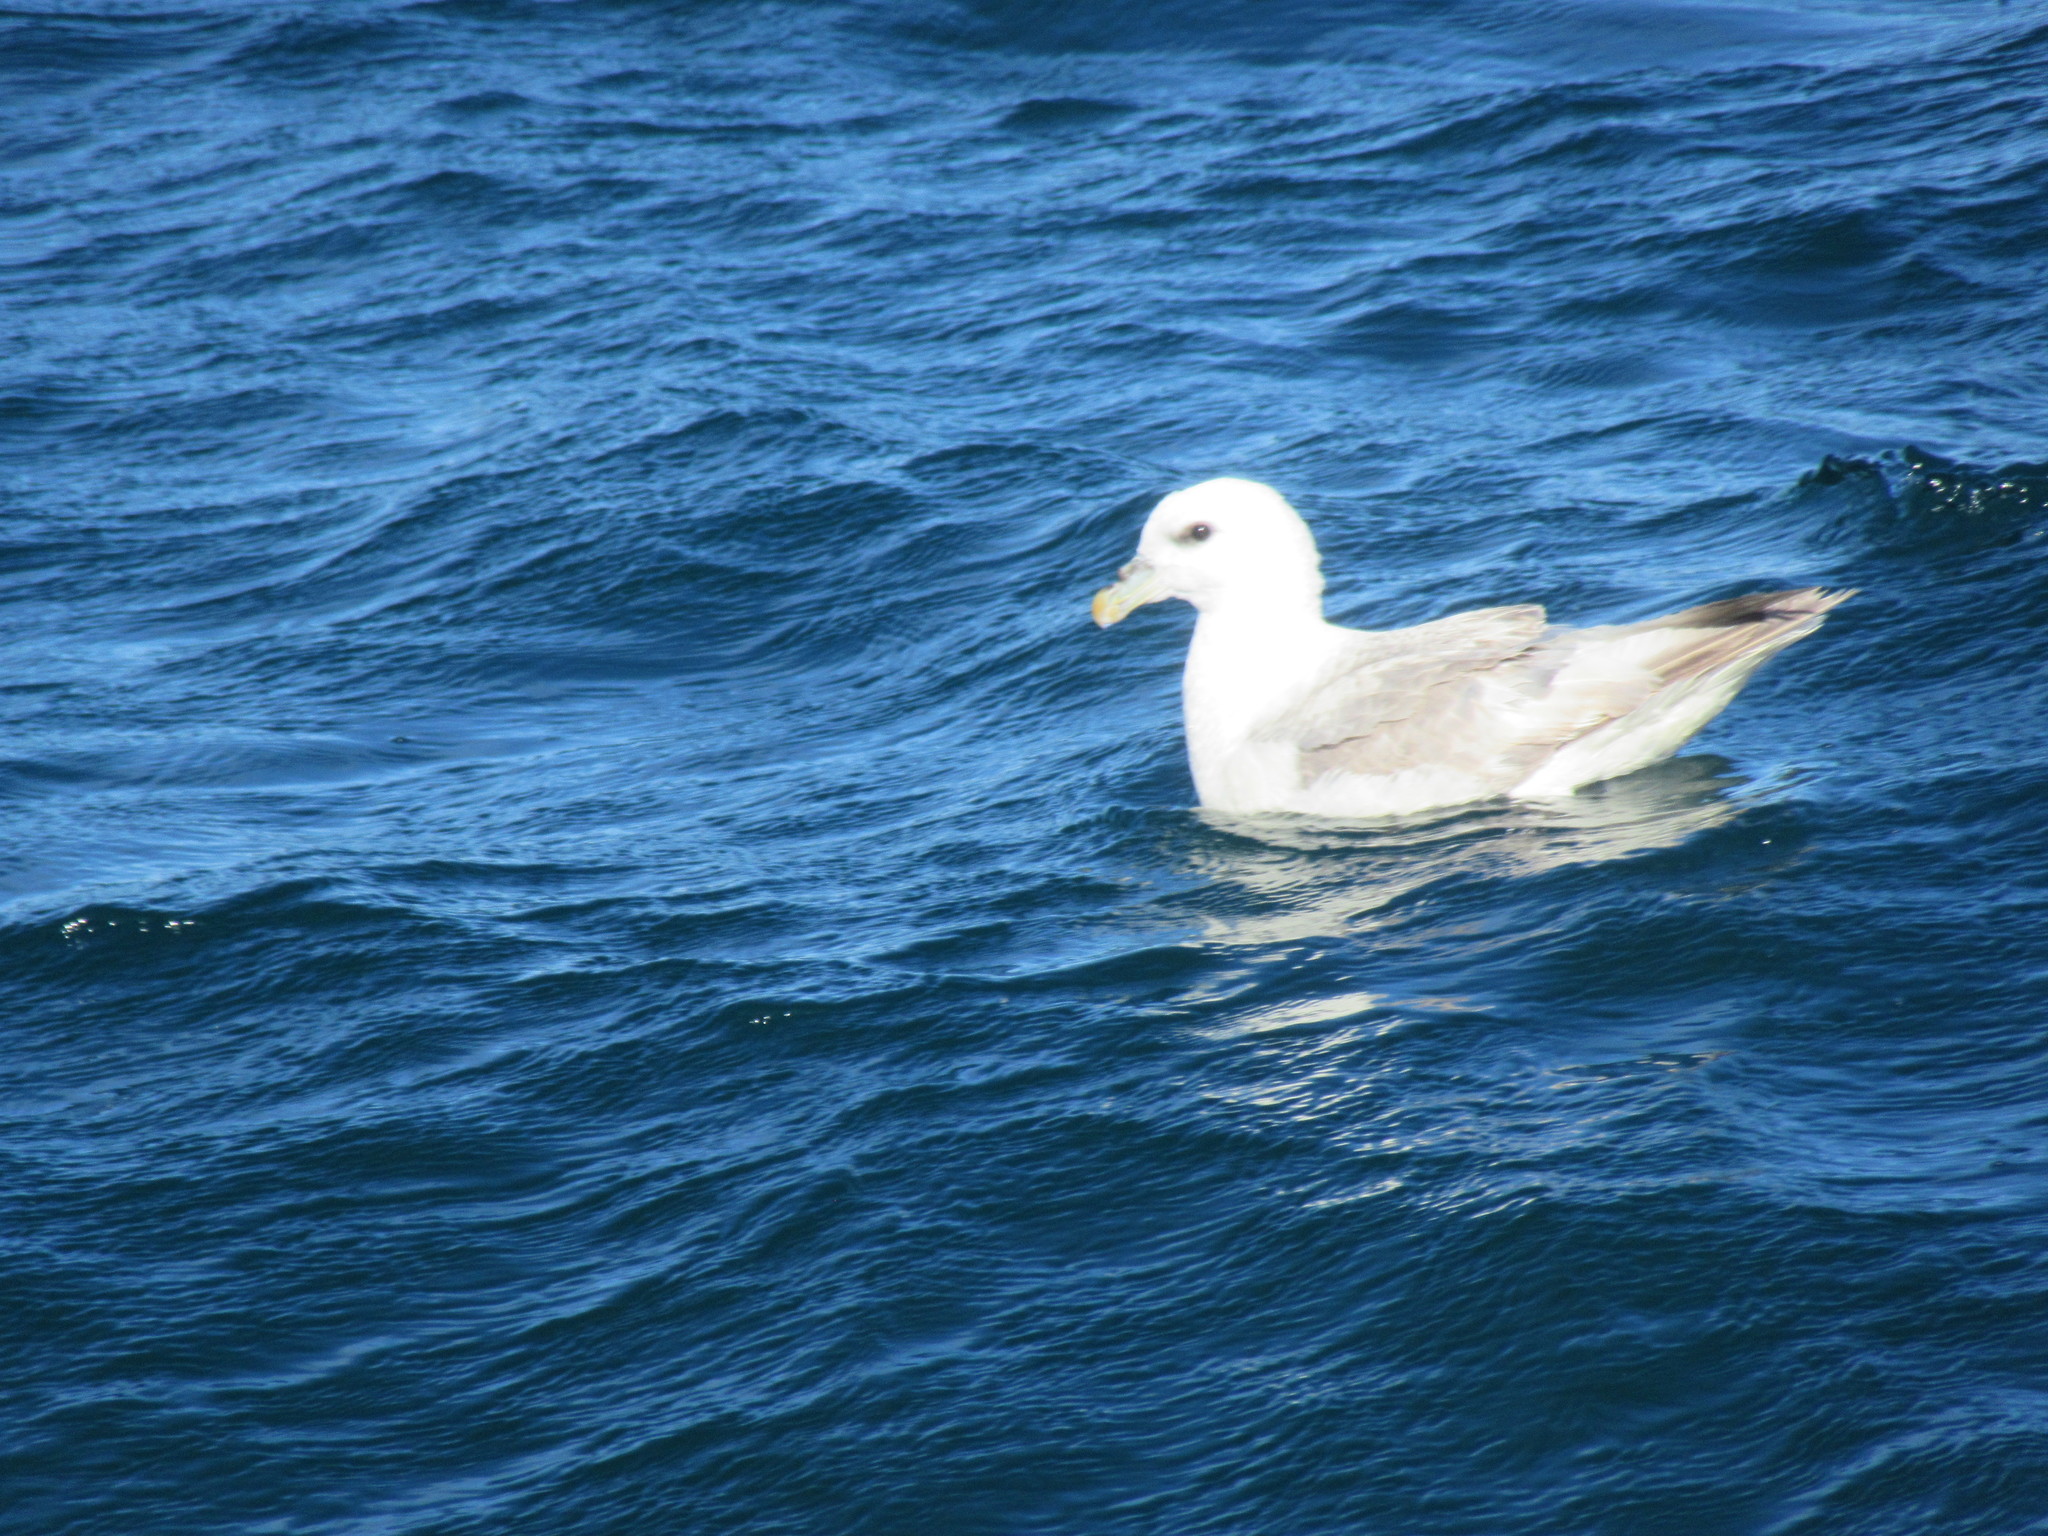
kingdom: Animalia
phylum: Chordata
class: Aves
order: Procellariiformes
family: Procellariidae
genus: Fulmarus
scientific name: Fulmarus glacialis
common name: Northern fulmar
